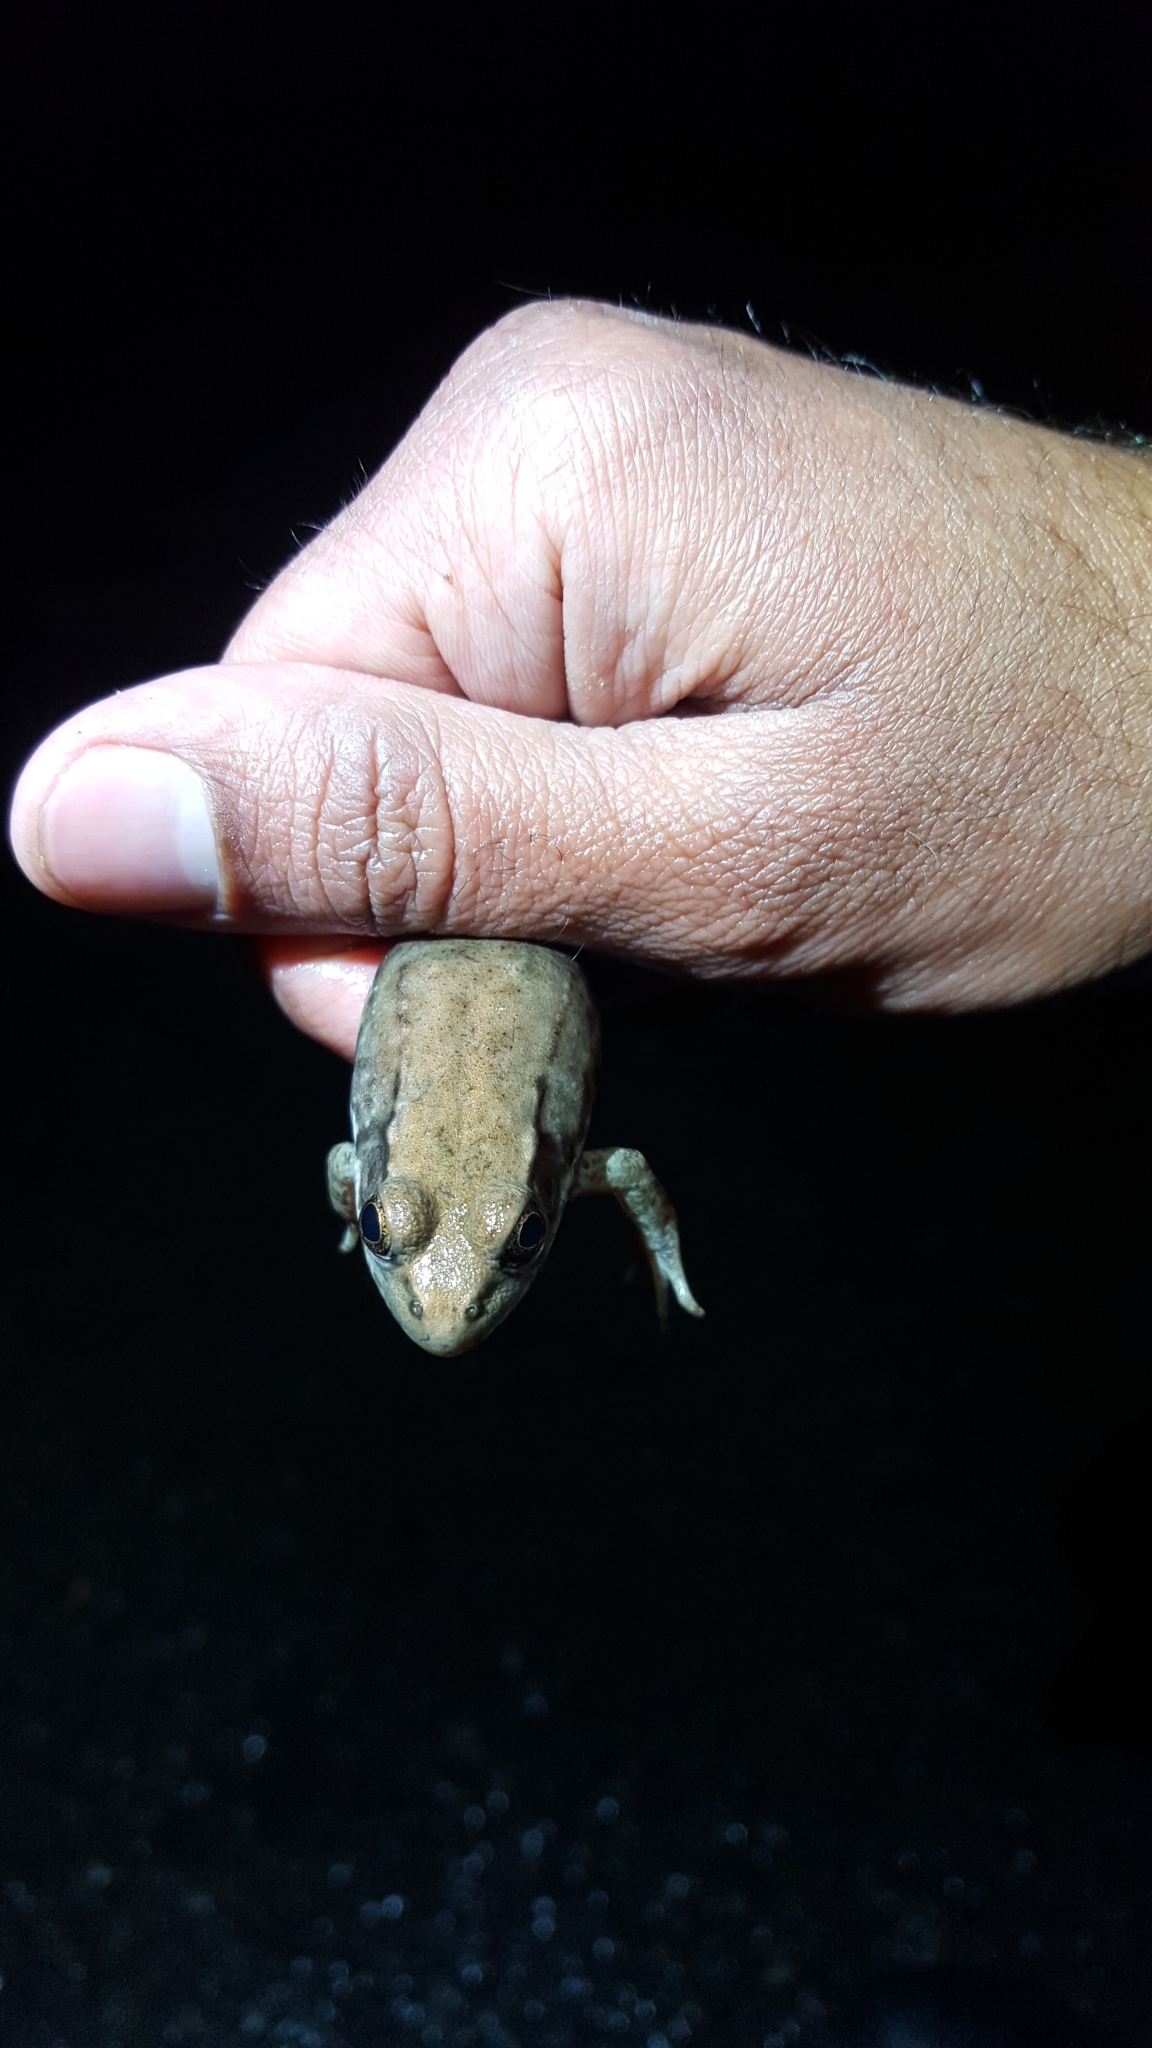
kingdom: Animalia
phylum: Chordata
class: Amphibia
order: Anura
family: Ranidae
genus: Lithobates
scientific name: Lithobates clamitans
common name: Green frog
